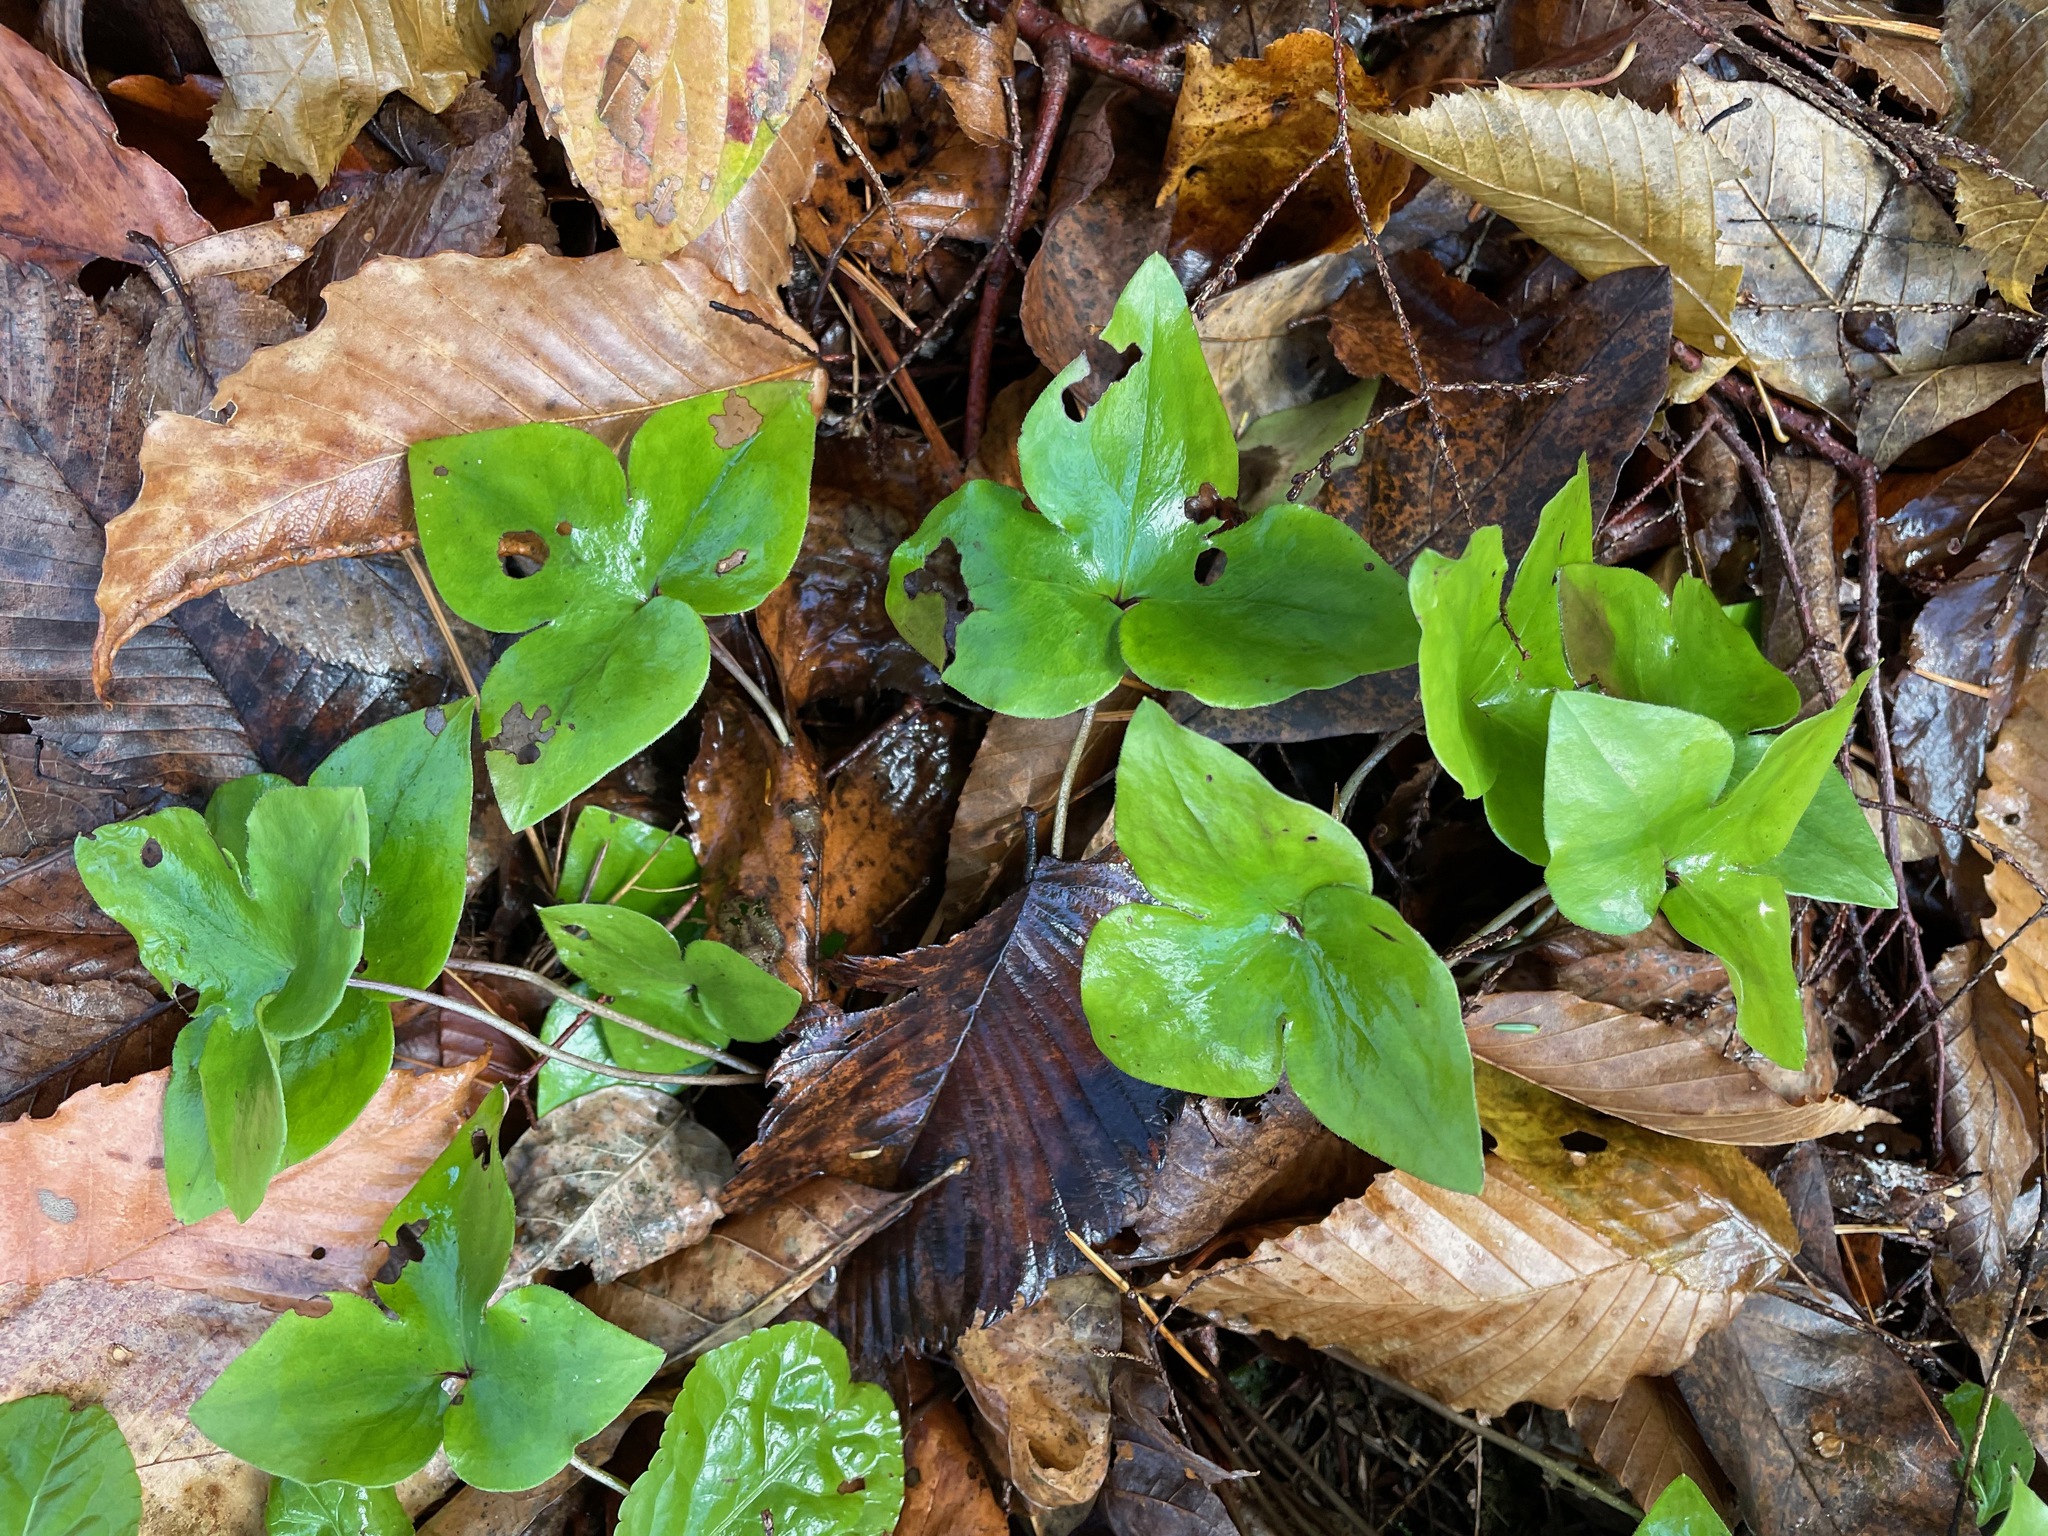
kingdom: Plantae
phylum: Tracheophyta
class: Magnoliopsida
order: Ranunculales
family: Ranunculaceae
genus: Hepatica
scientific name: Hepatica acutiloba
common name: Sharp-lobed hepatica
